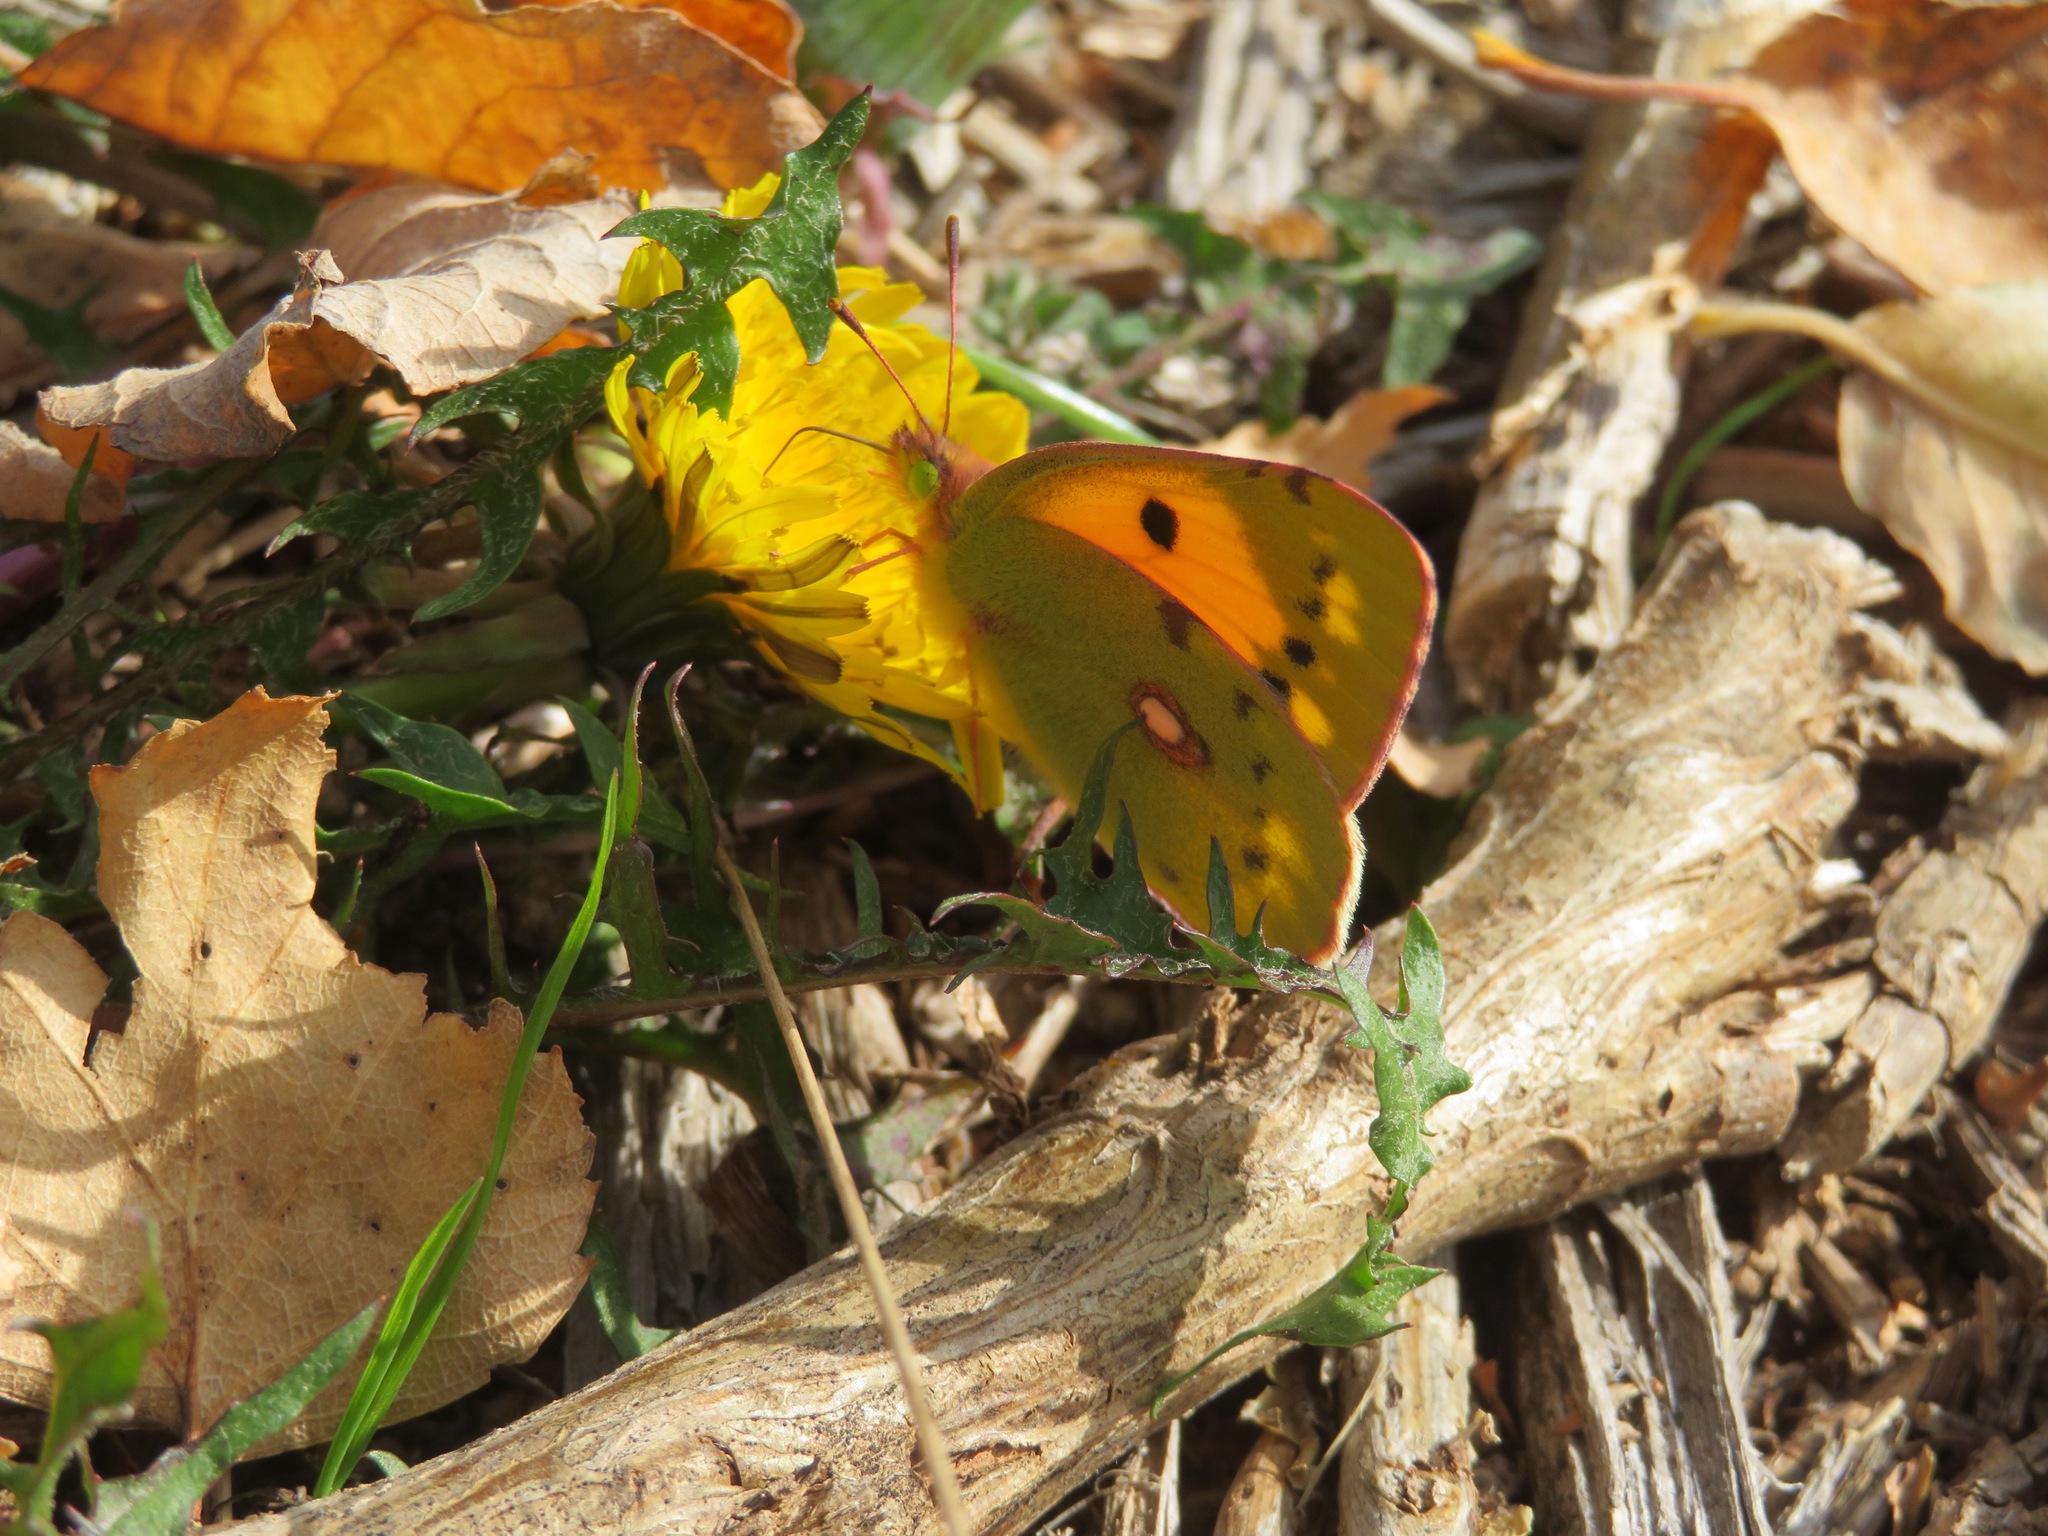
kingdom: Animalia
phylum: Arthropoda
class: Insecta
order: Lepidoptera
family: Pieridae
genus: Colias
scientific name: Colias croceus
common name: Clouded yellow
